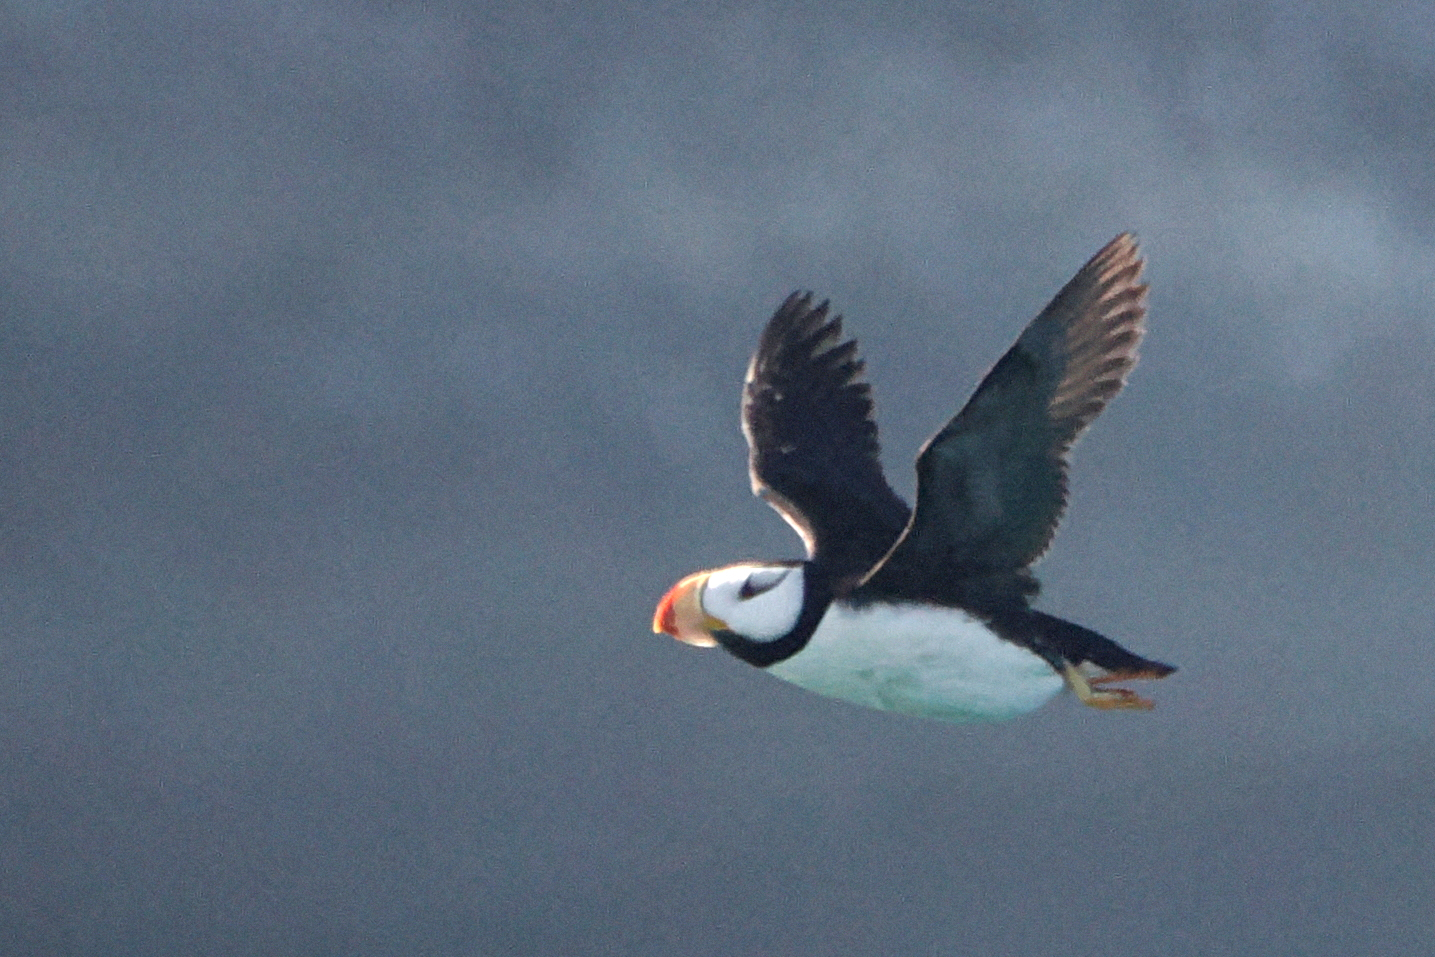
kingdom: Animalia
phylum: Chordata
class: Aves
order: Charadriiformes
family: Alcidae
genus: Fratercula
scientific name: Fratercula corniculata
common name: Horned puffin
